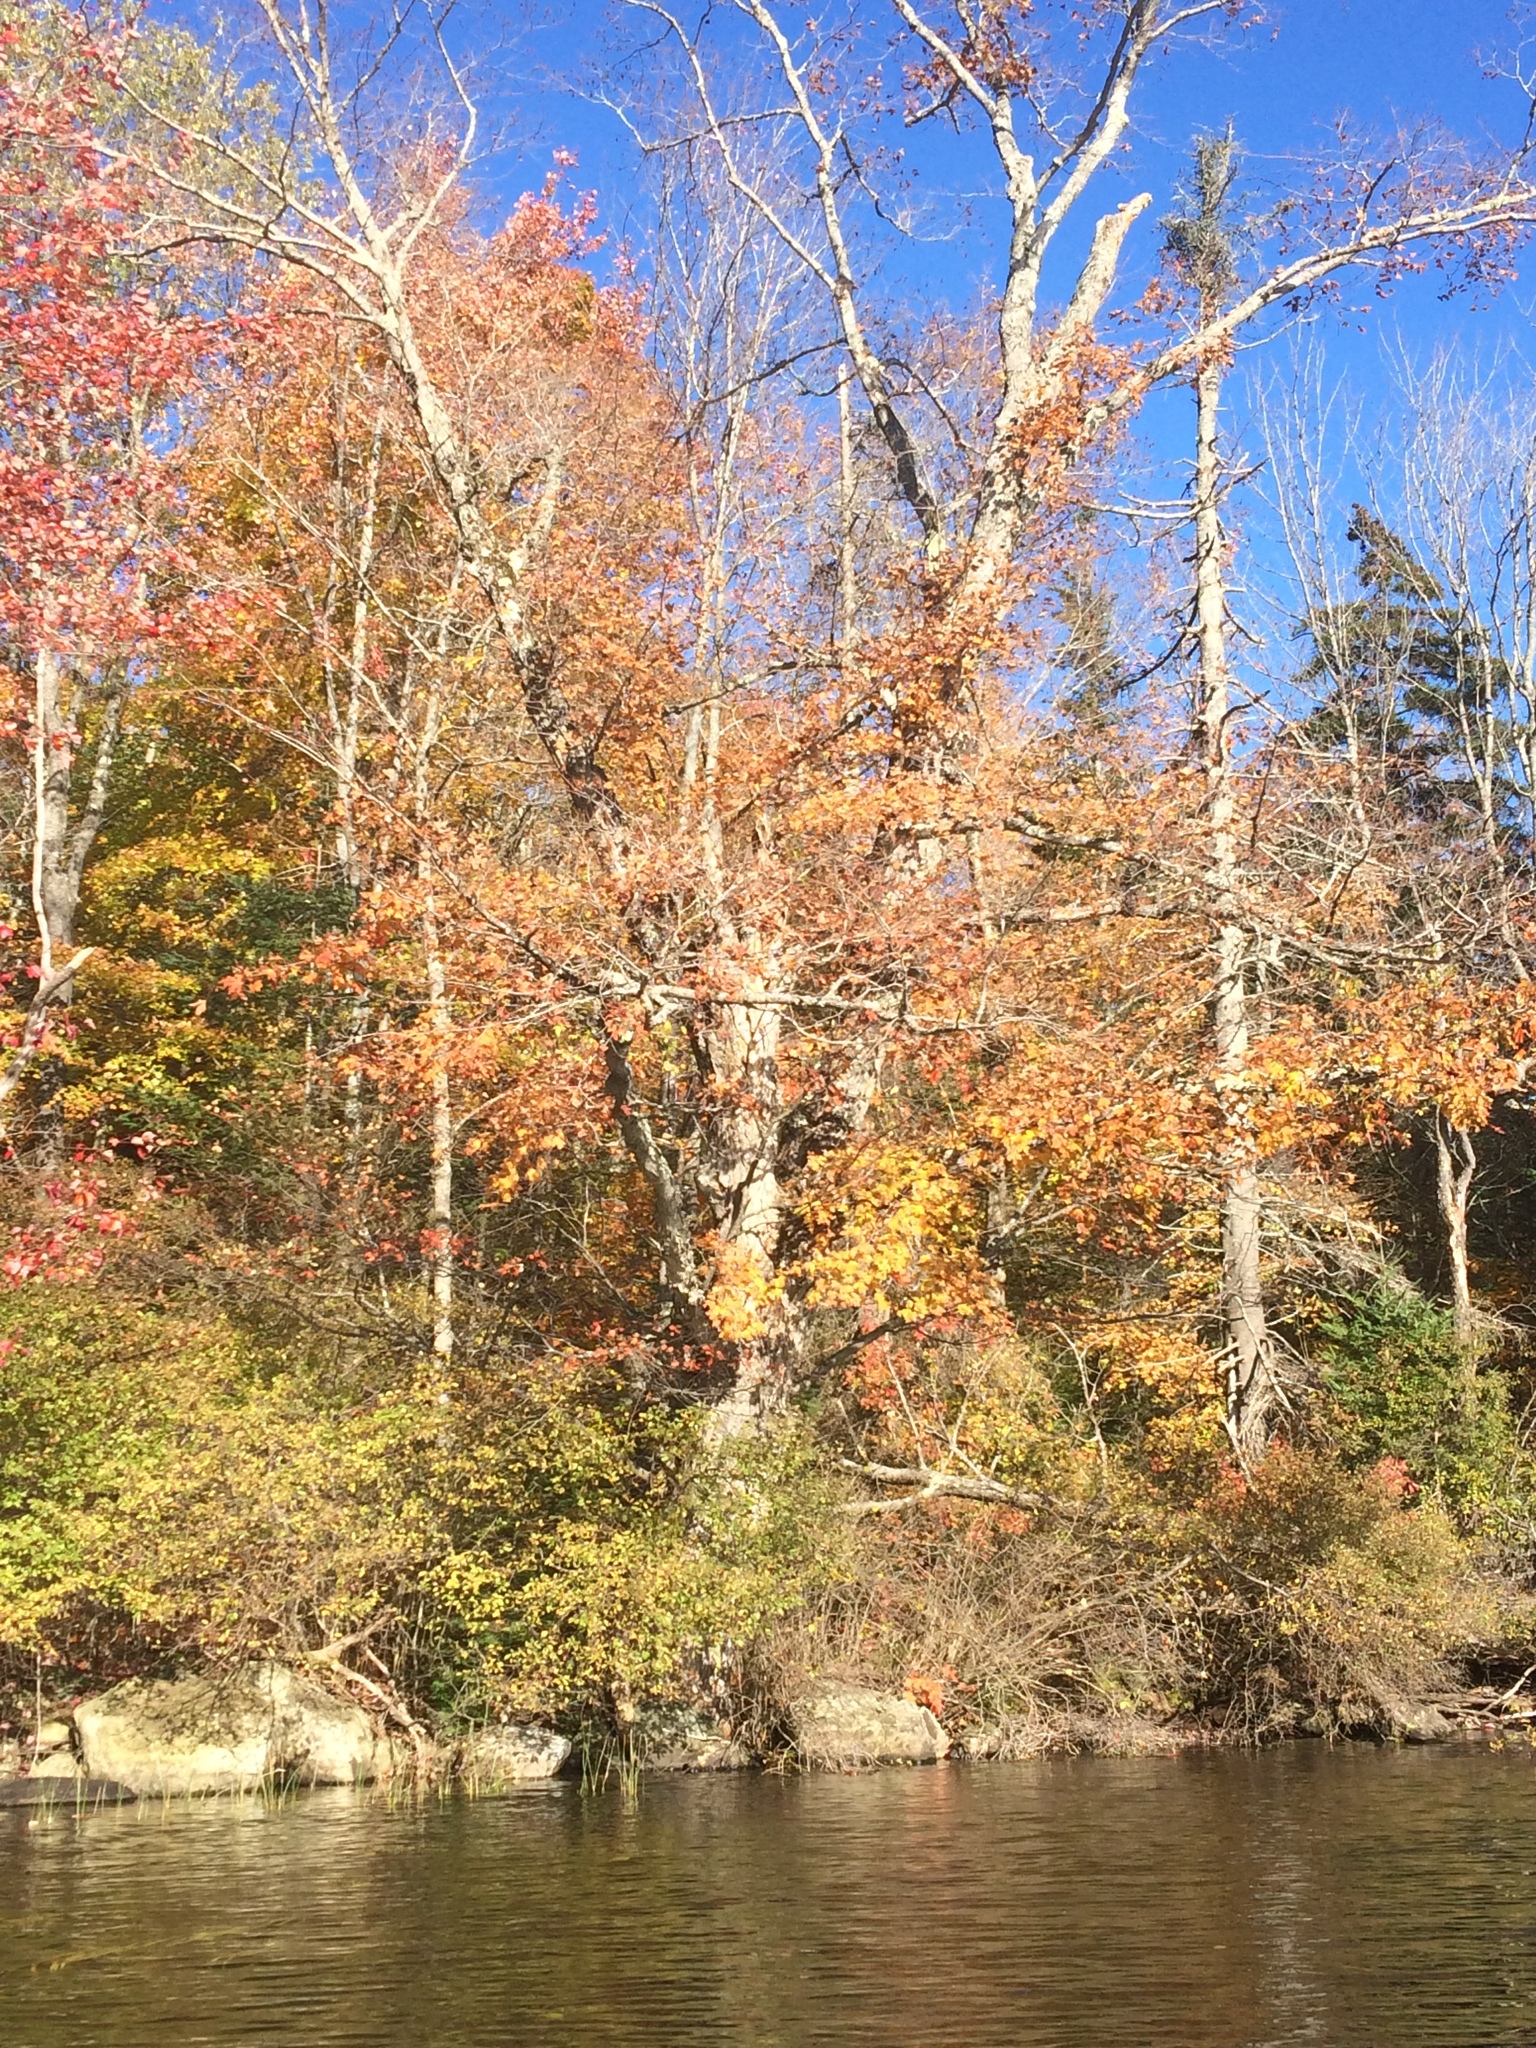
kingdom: Plantae
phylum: Tracheophyta
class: Magnoliopsida
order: Sapindales
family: Sapindaceae
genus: Acer
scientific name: Acer saccharum
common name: Sugar maple
